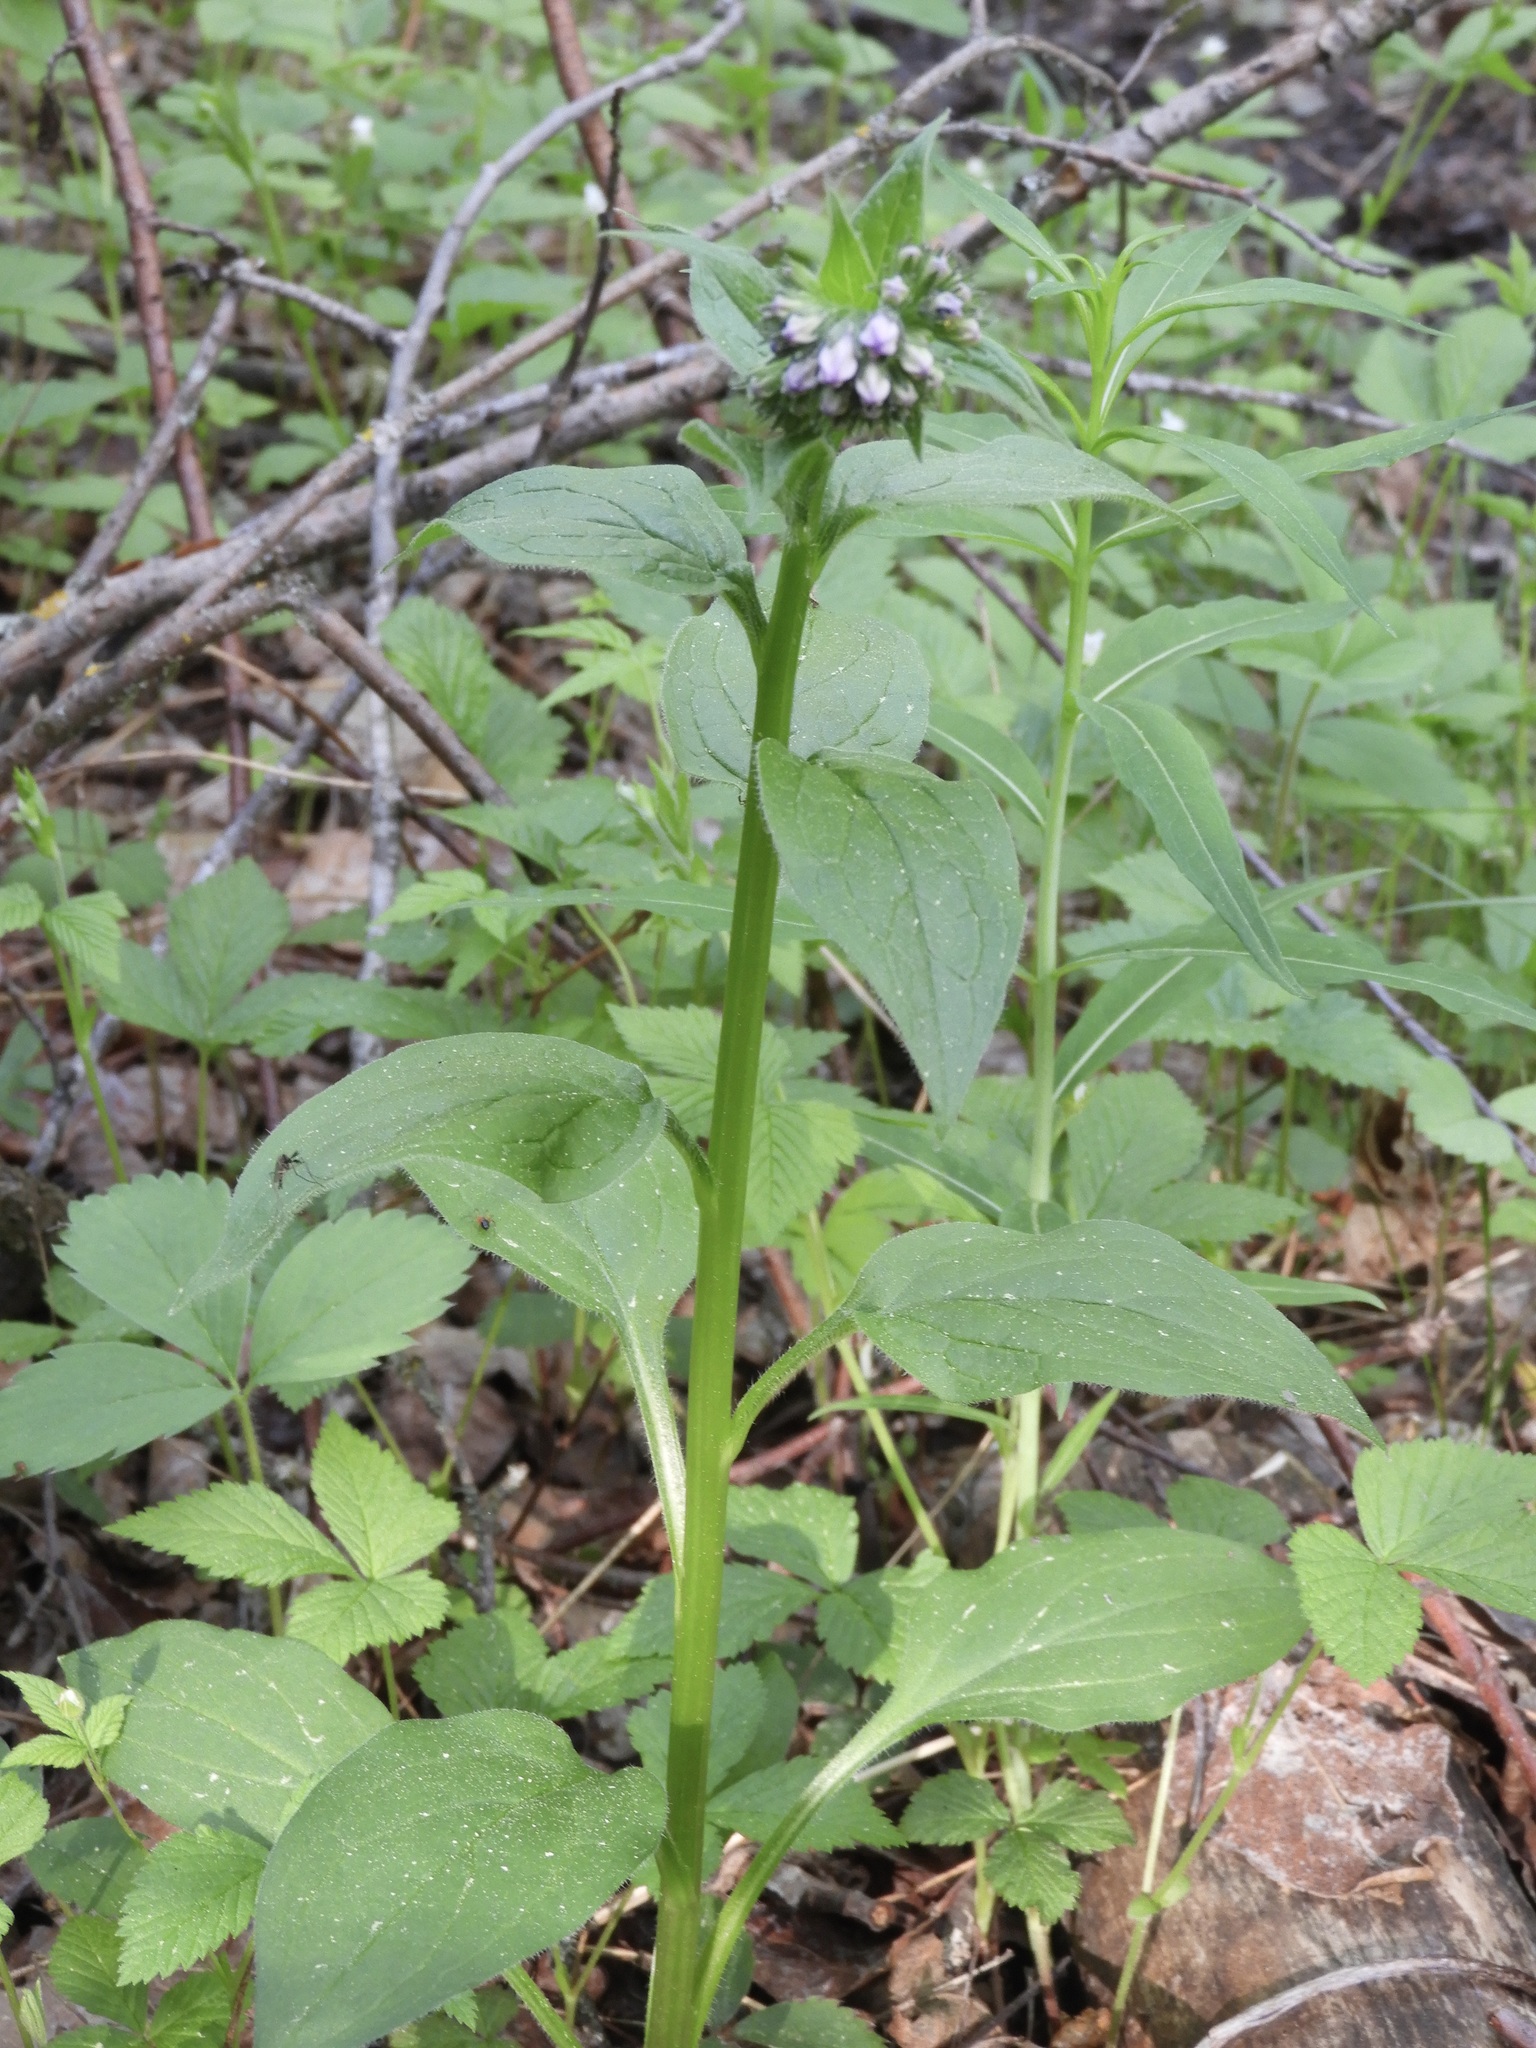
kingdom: Plantae
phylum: Tracheophyta
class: Magnoliopsida
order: Boraginales
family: Boraginaceae
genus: Mertensia
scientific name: Mertensia paniculata
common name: Panicled bluebells
